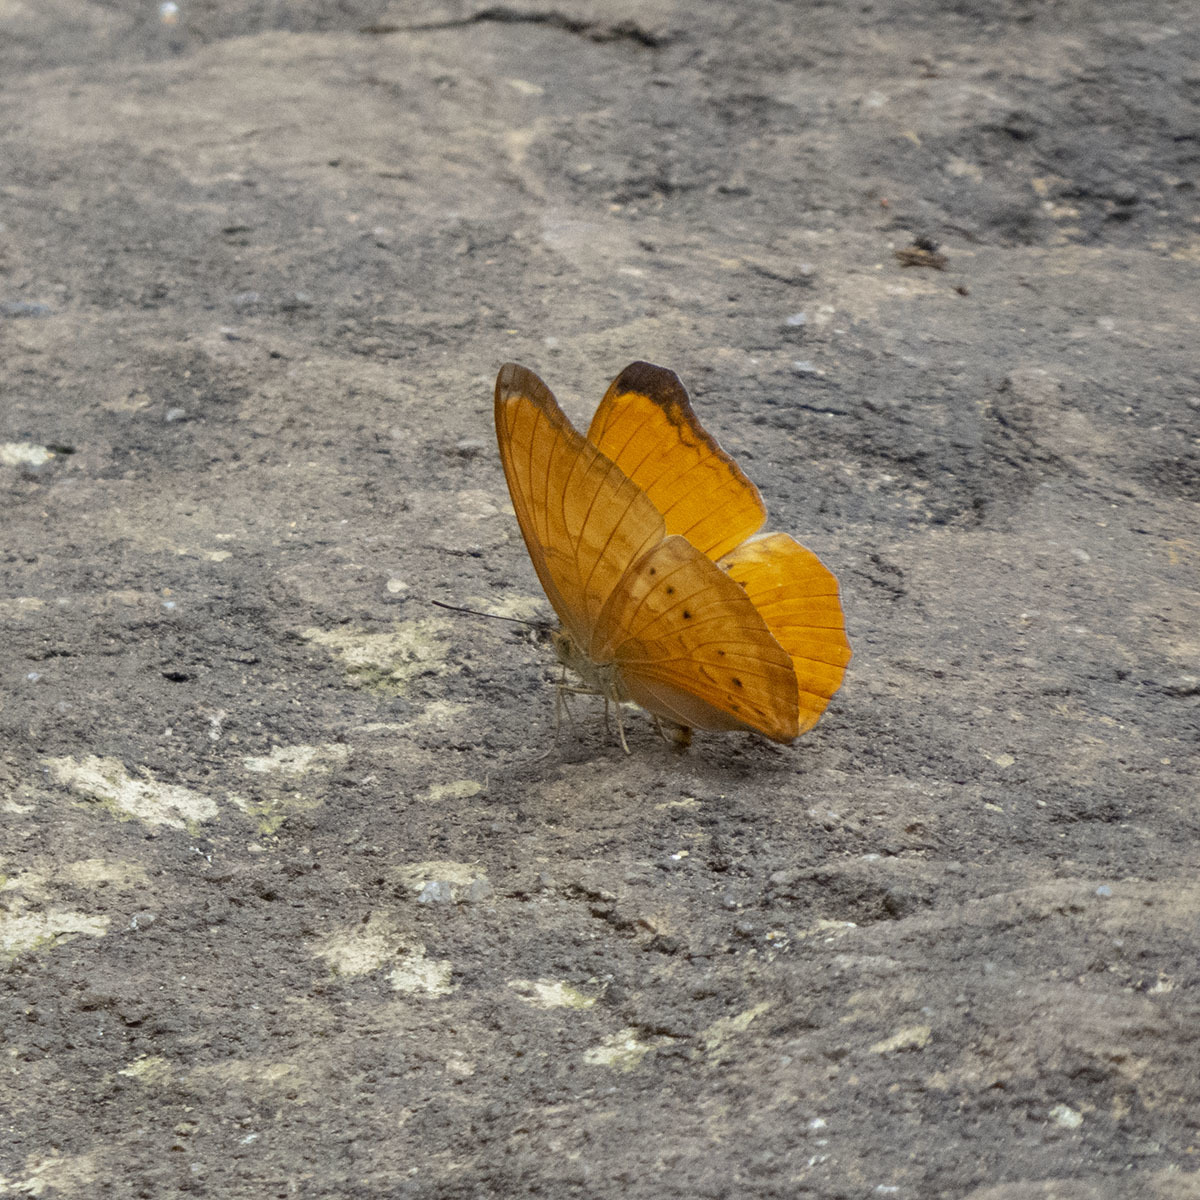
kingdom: Animalia
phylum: Arthropoda
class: Insecta
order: Lepidoptera
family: Nymphalidae
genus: Cirrochroa
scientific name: Cirrochroa tyche
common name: Common yeoman
